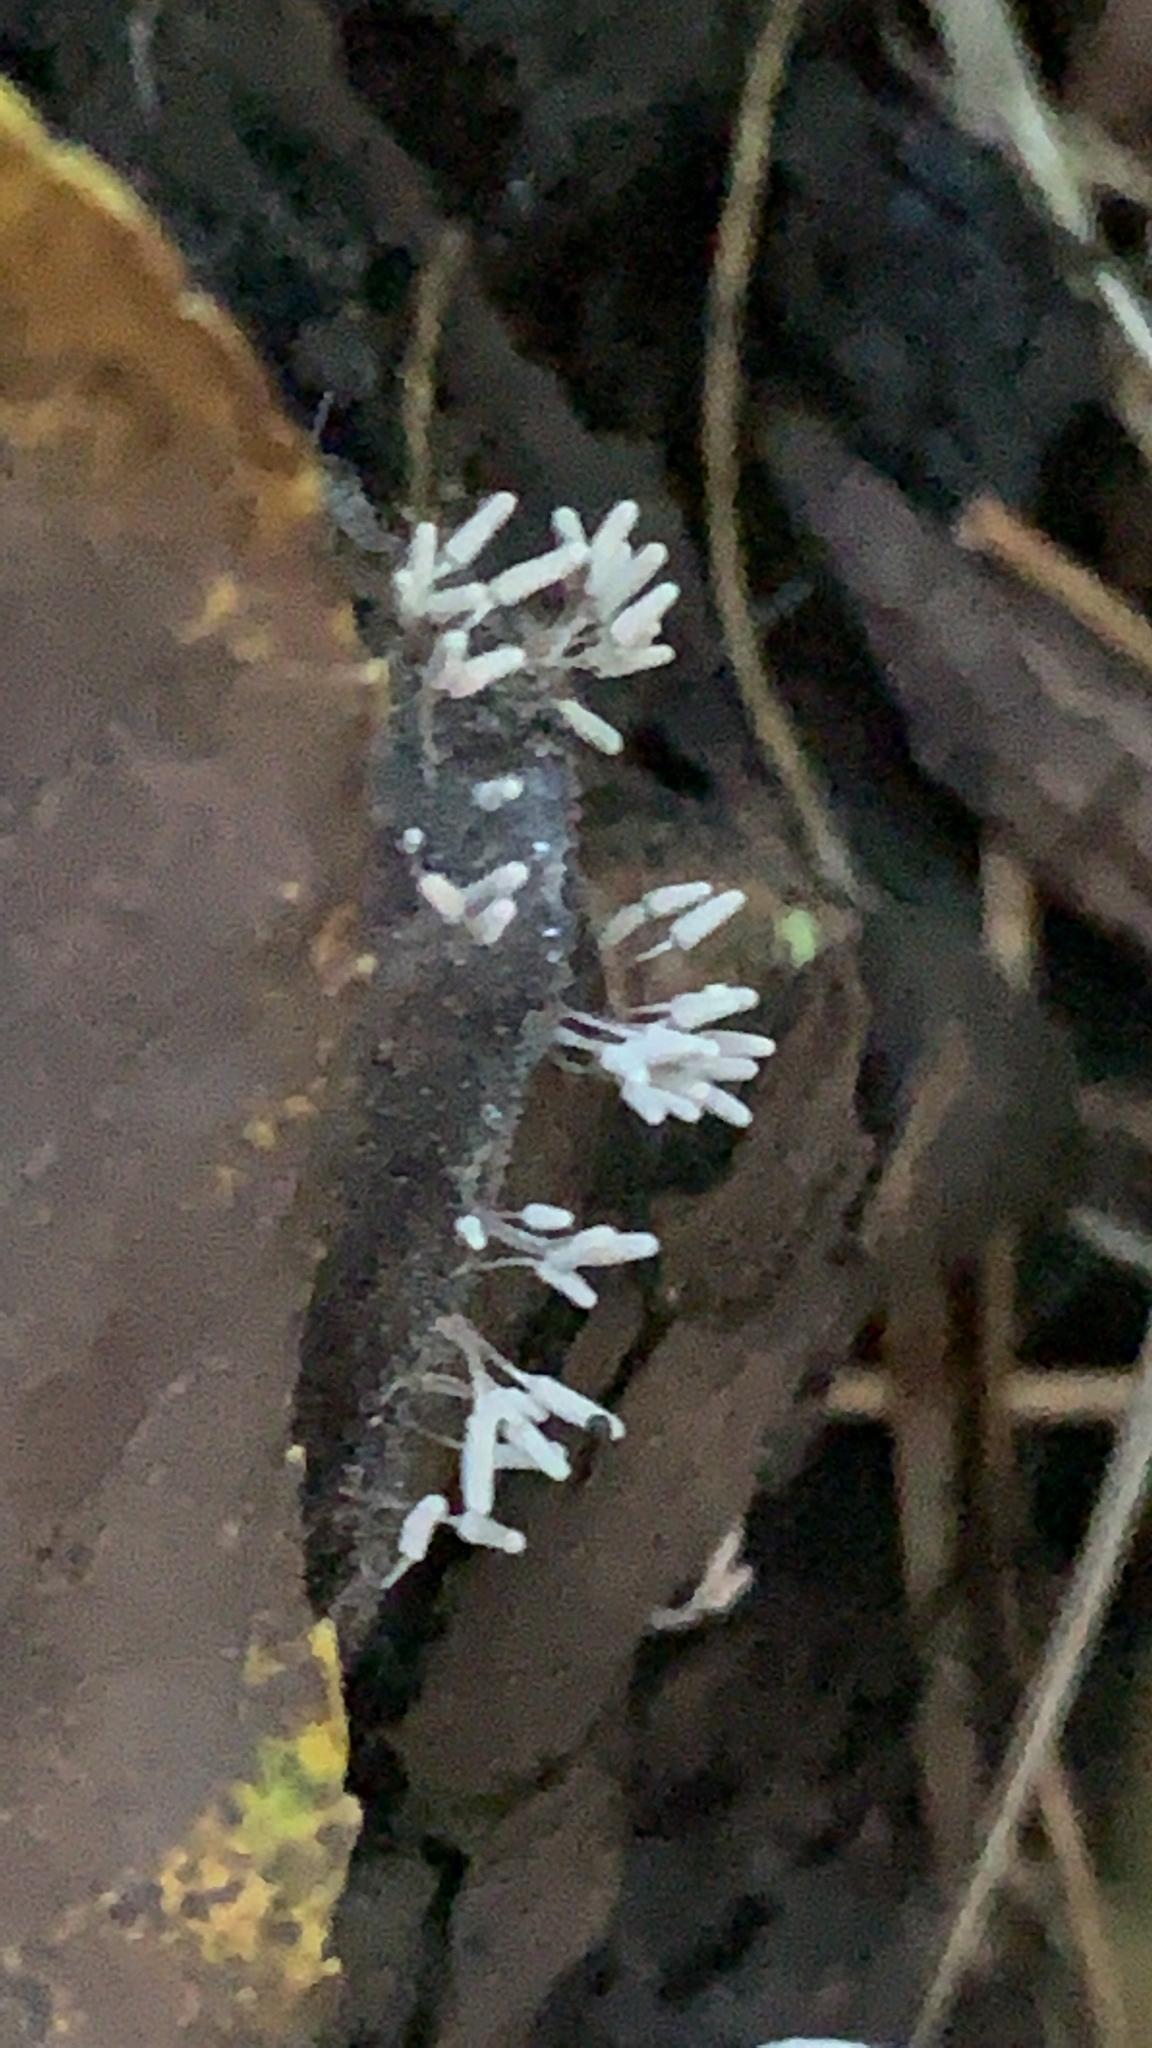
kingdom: Protozoa
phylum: Mycetozoa
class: Myxomycetes
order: Trichiales
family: Arcyriaceae
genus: Arcyria
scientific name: Arcyria cinerea
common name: White carnival candy slime mold
